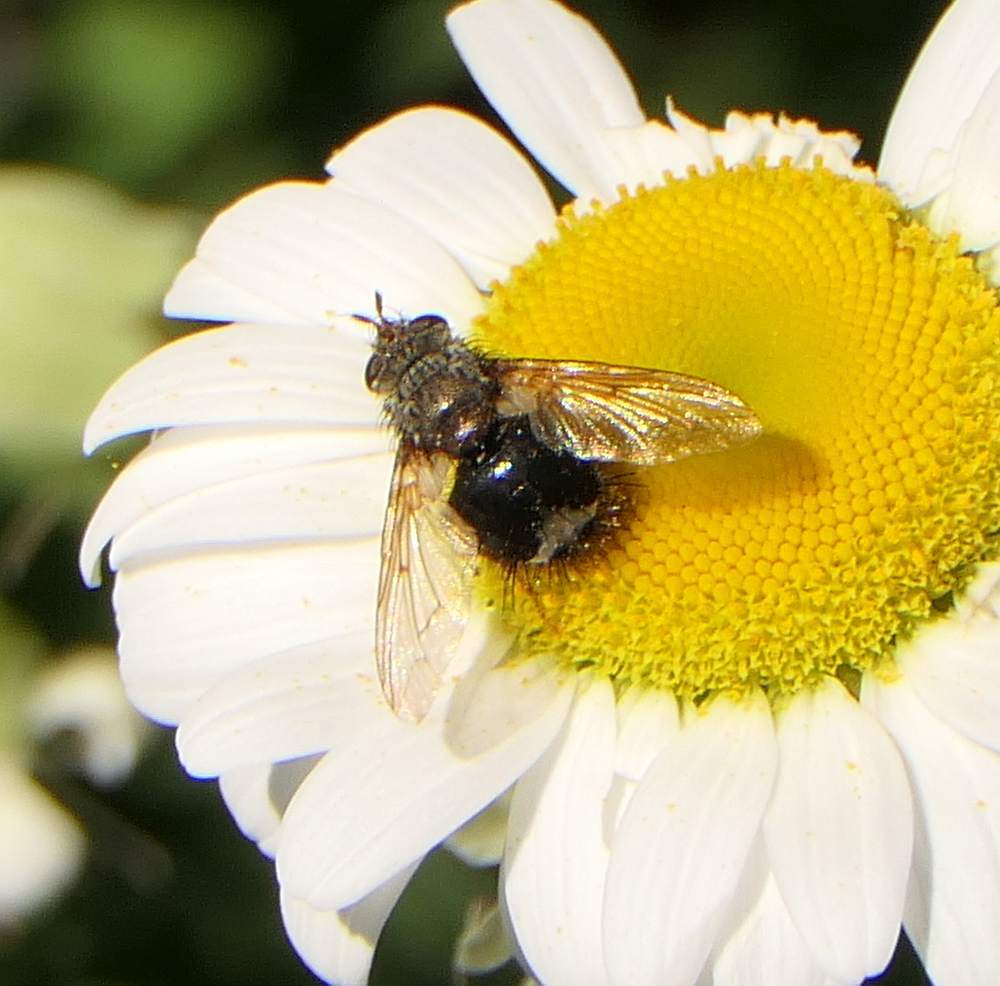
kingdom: Animalia
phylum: Arthropoda
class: Insecta
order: Diptera
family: Tachinidae
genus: Epalpus
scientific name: Epalpus signifer
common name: Early tachinid fly
